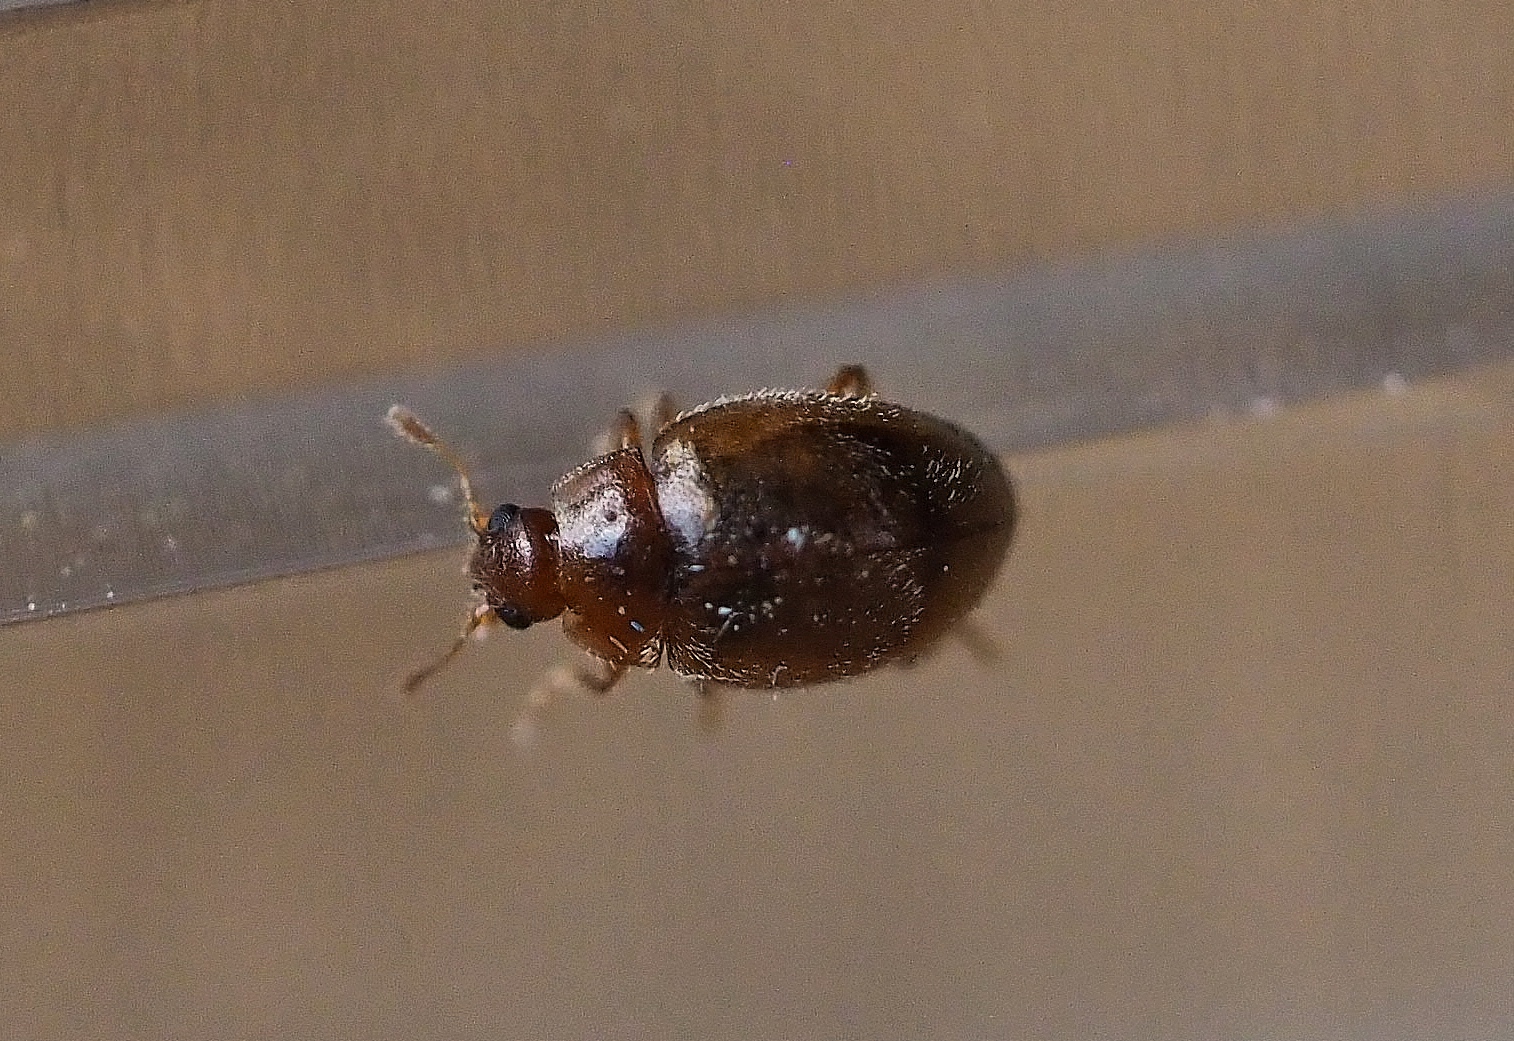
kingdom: Animalia
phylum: Arthropoda
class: Insecta
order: Coleoptera
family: Coccinellidae
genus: Rhyzobius
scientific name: Rhyzobius chrysomeloides
